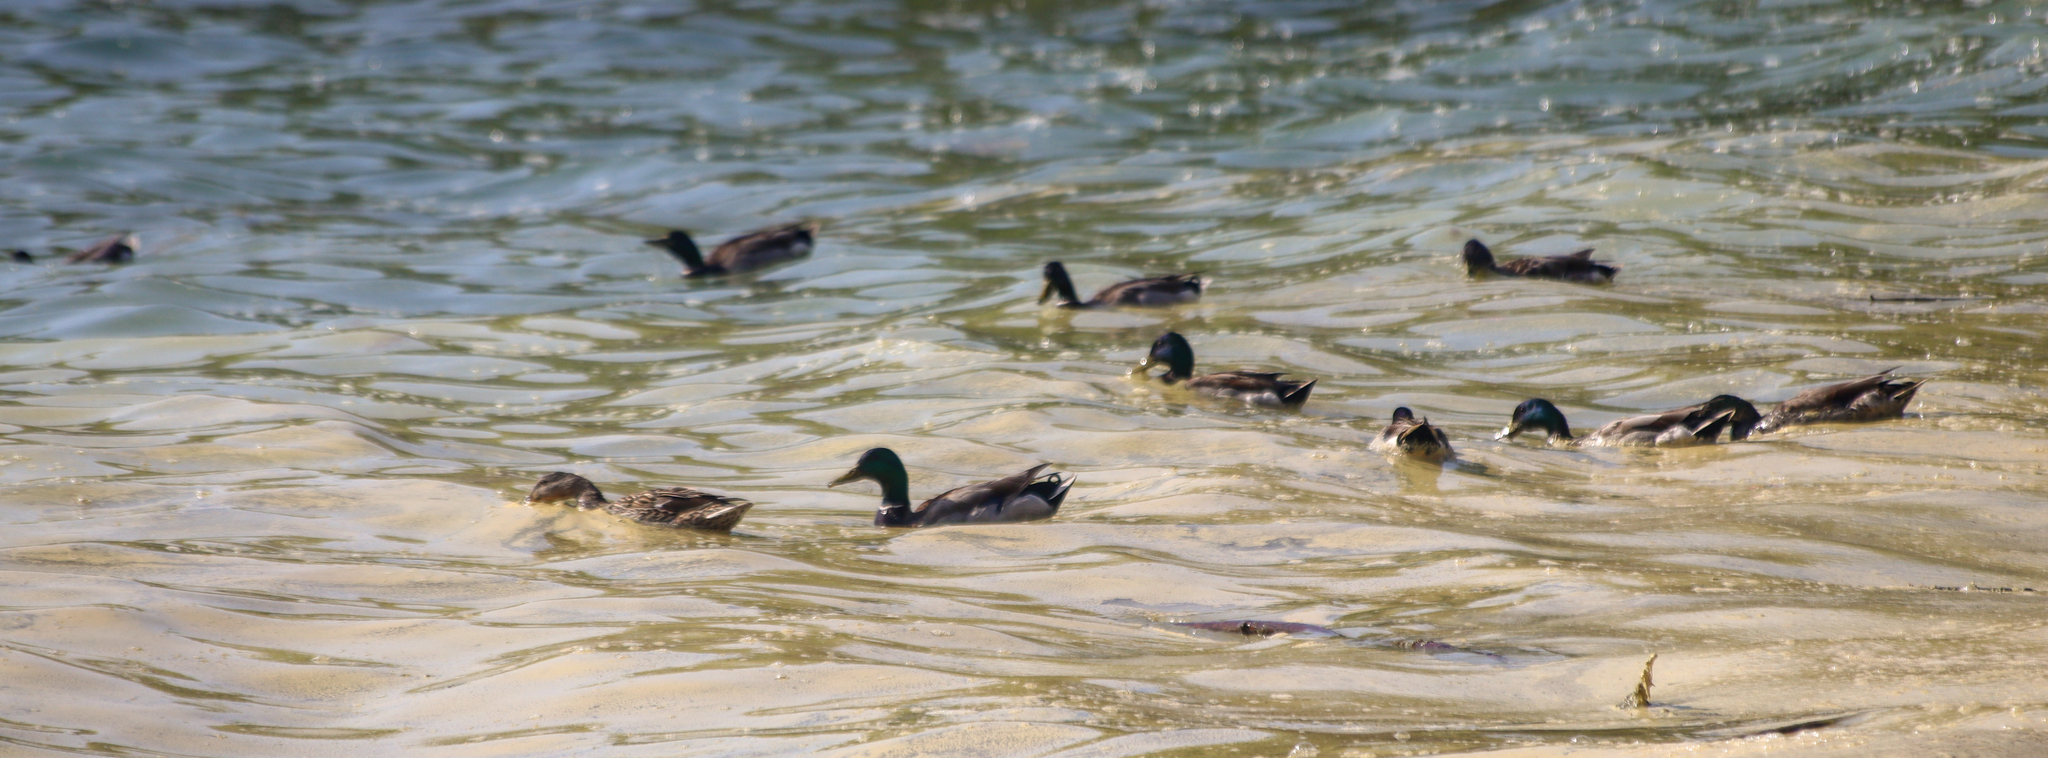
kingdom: Animalia
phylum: Chordata
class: Aves
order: Anseriformes
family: Anatidae
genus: Anas
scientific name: Anas platyrhynchos
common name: Mallard
